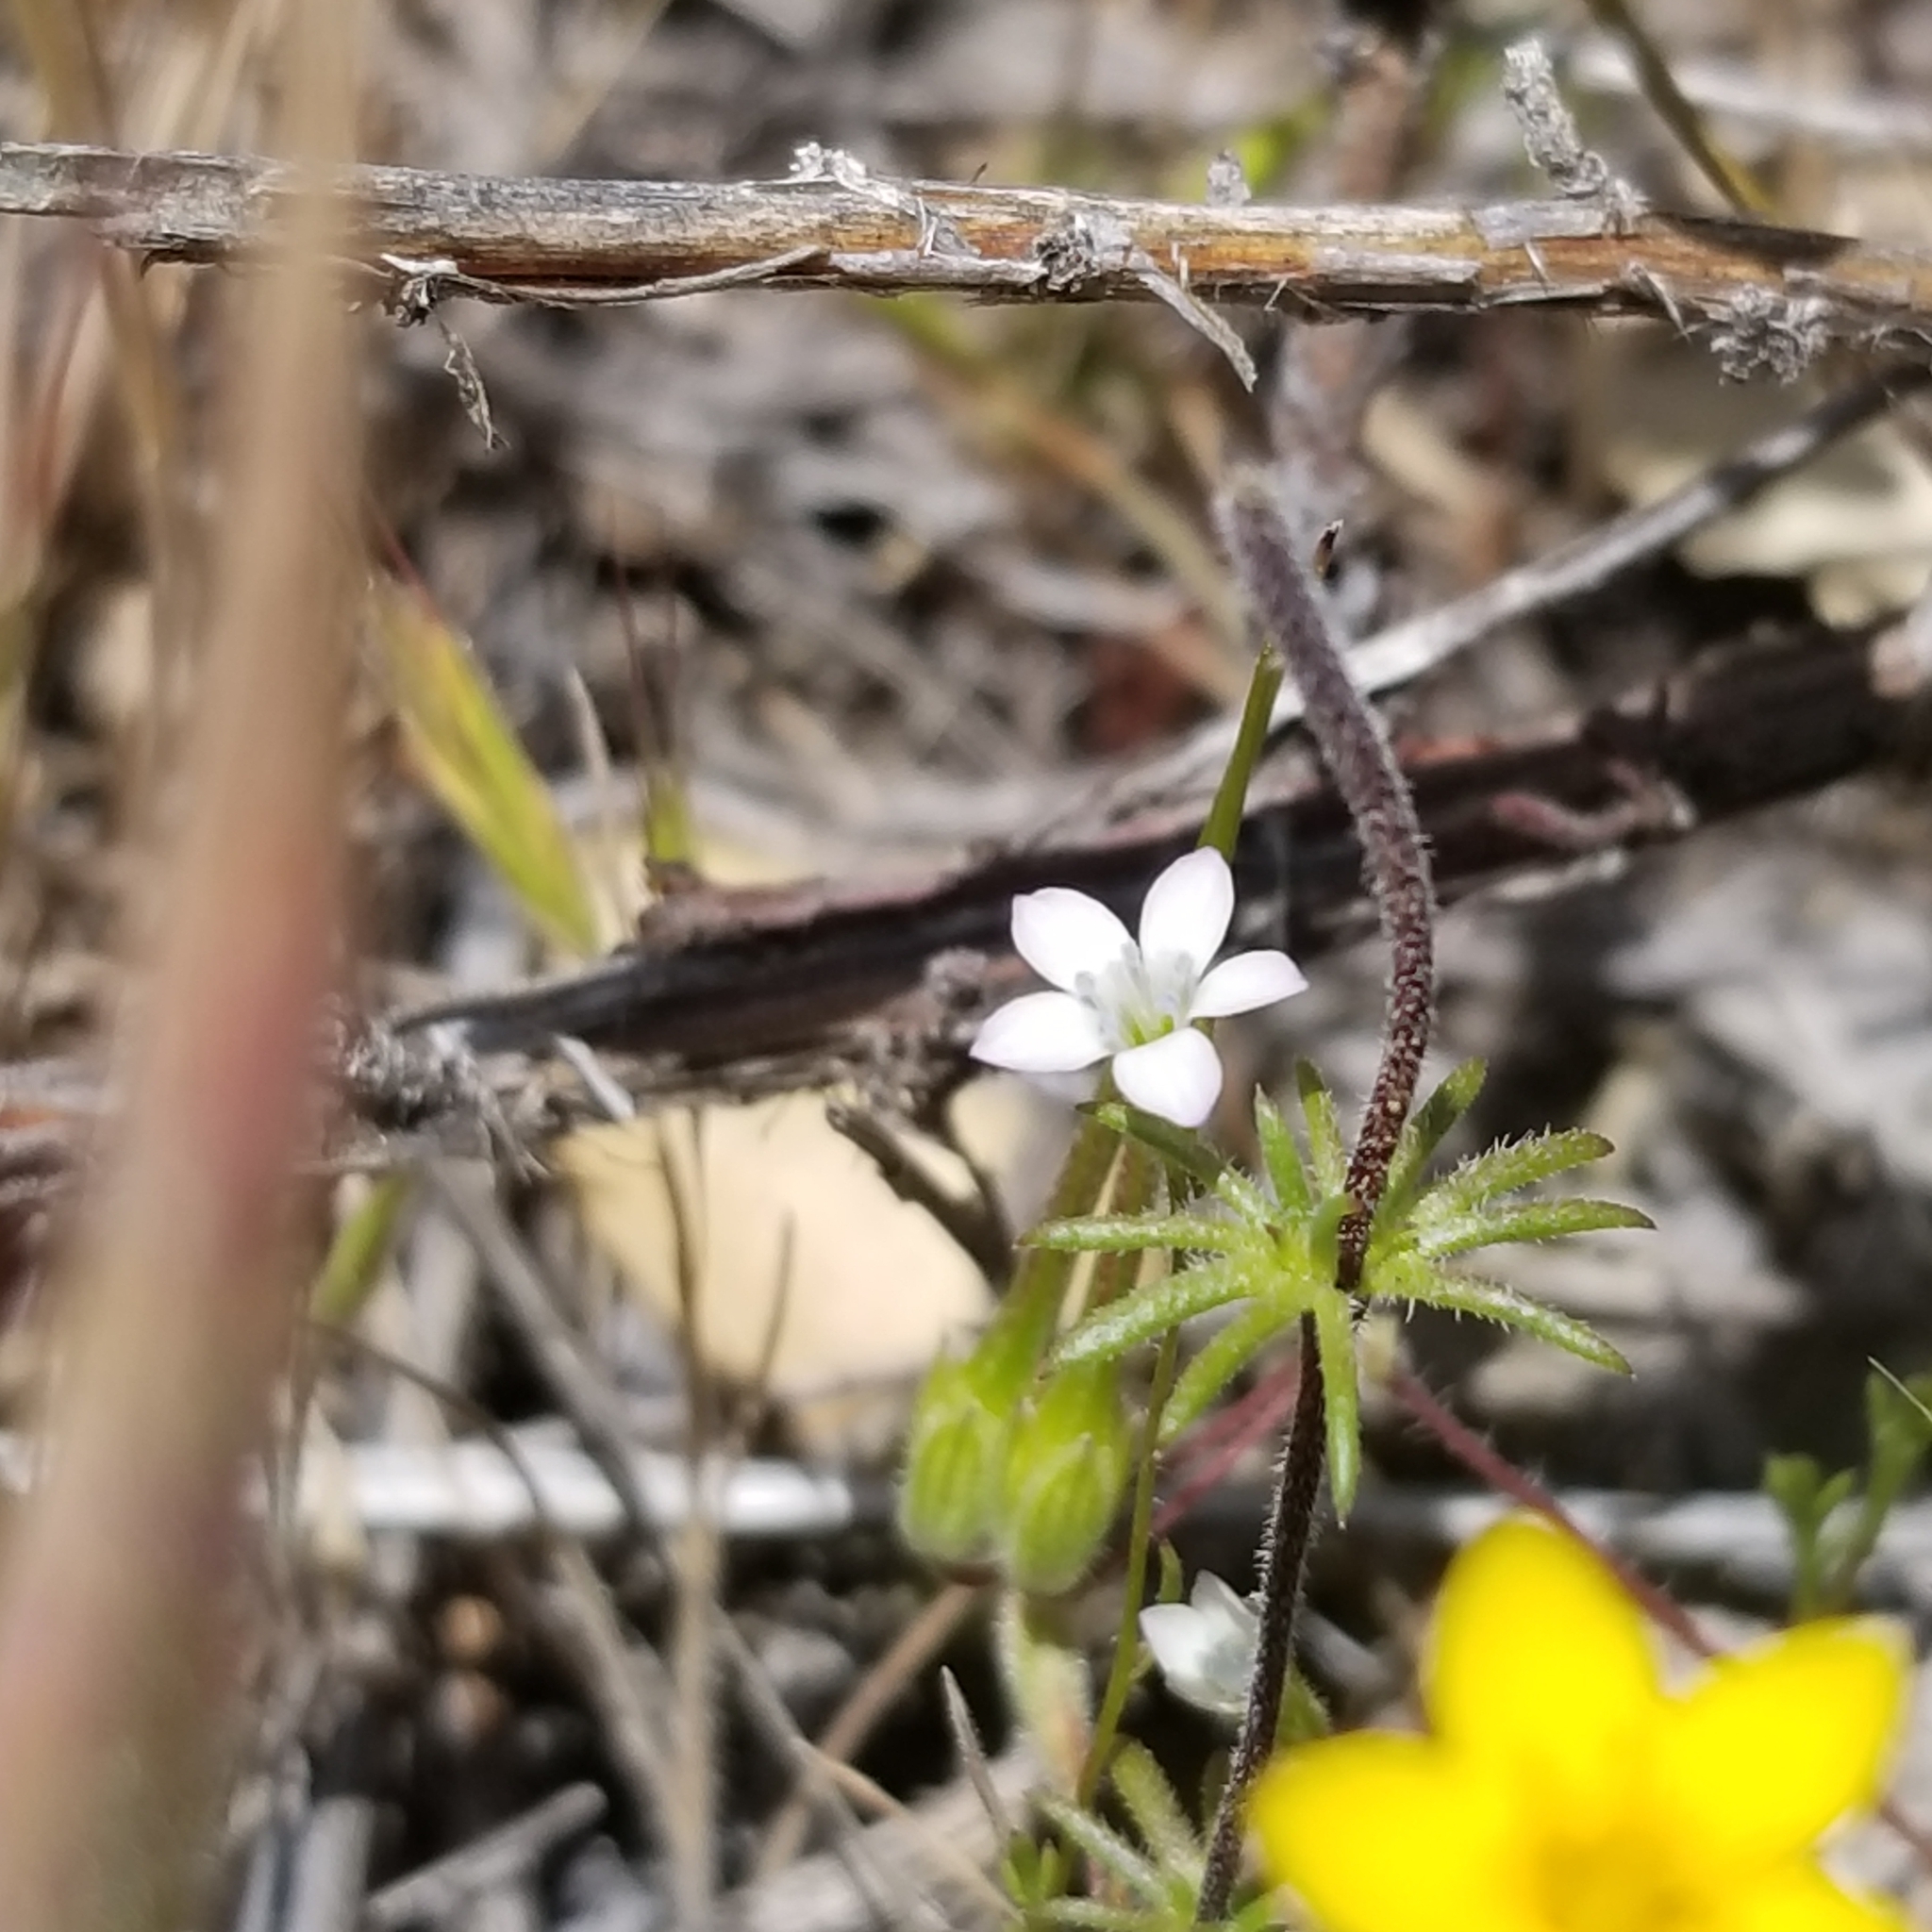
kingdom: Plantae
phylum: Tracheophyta
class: Magnoliopsida
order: Ericales
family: Polemoniaceae
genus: Gilia
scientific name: Gilia angelensis
